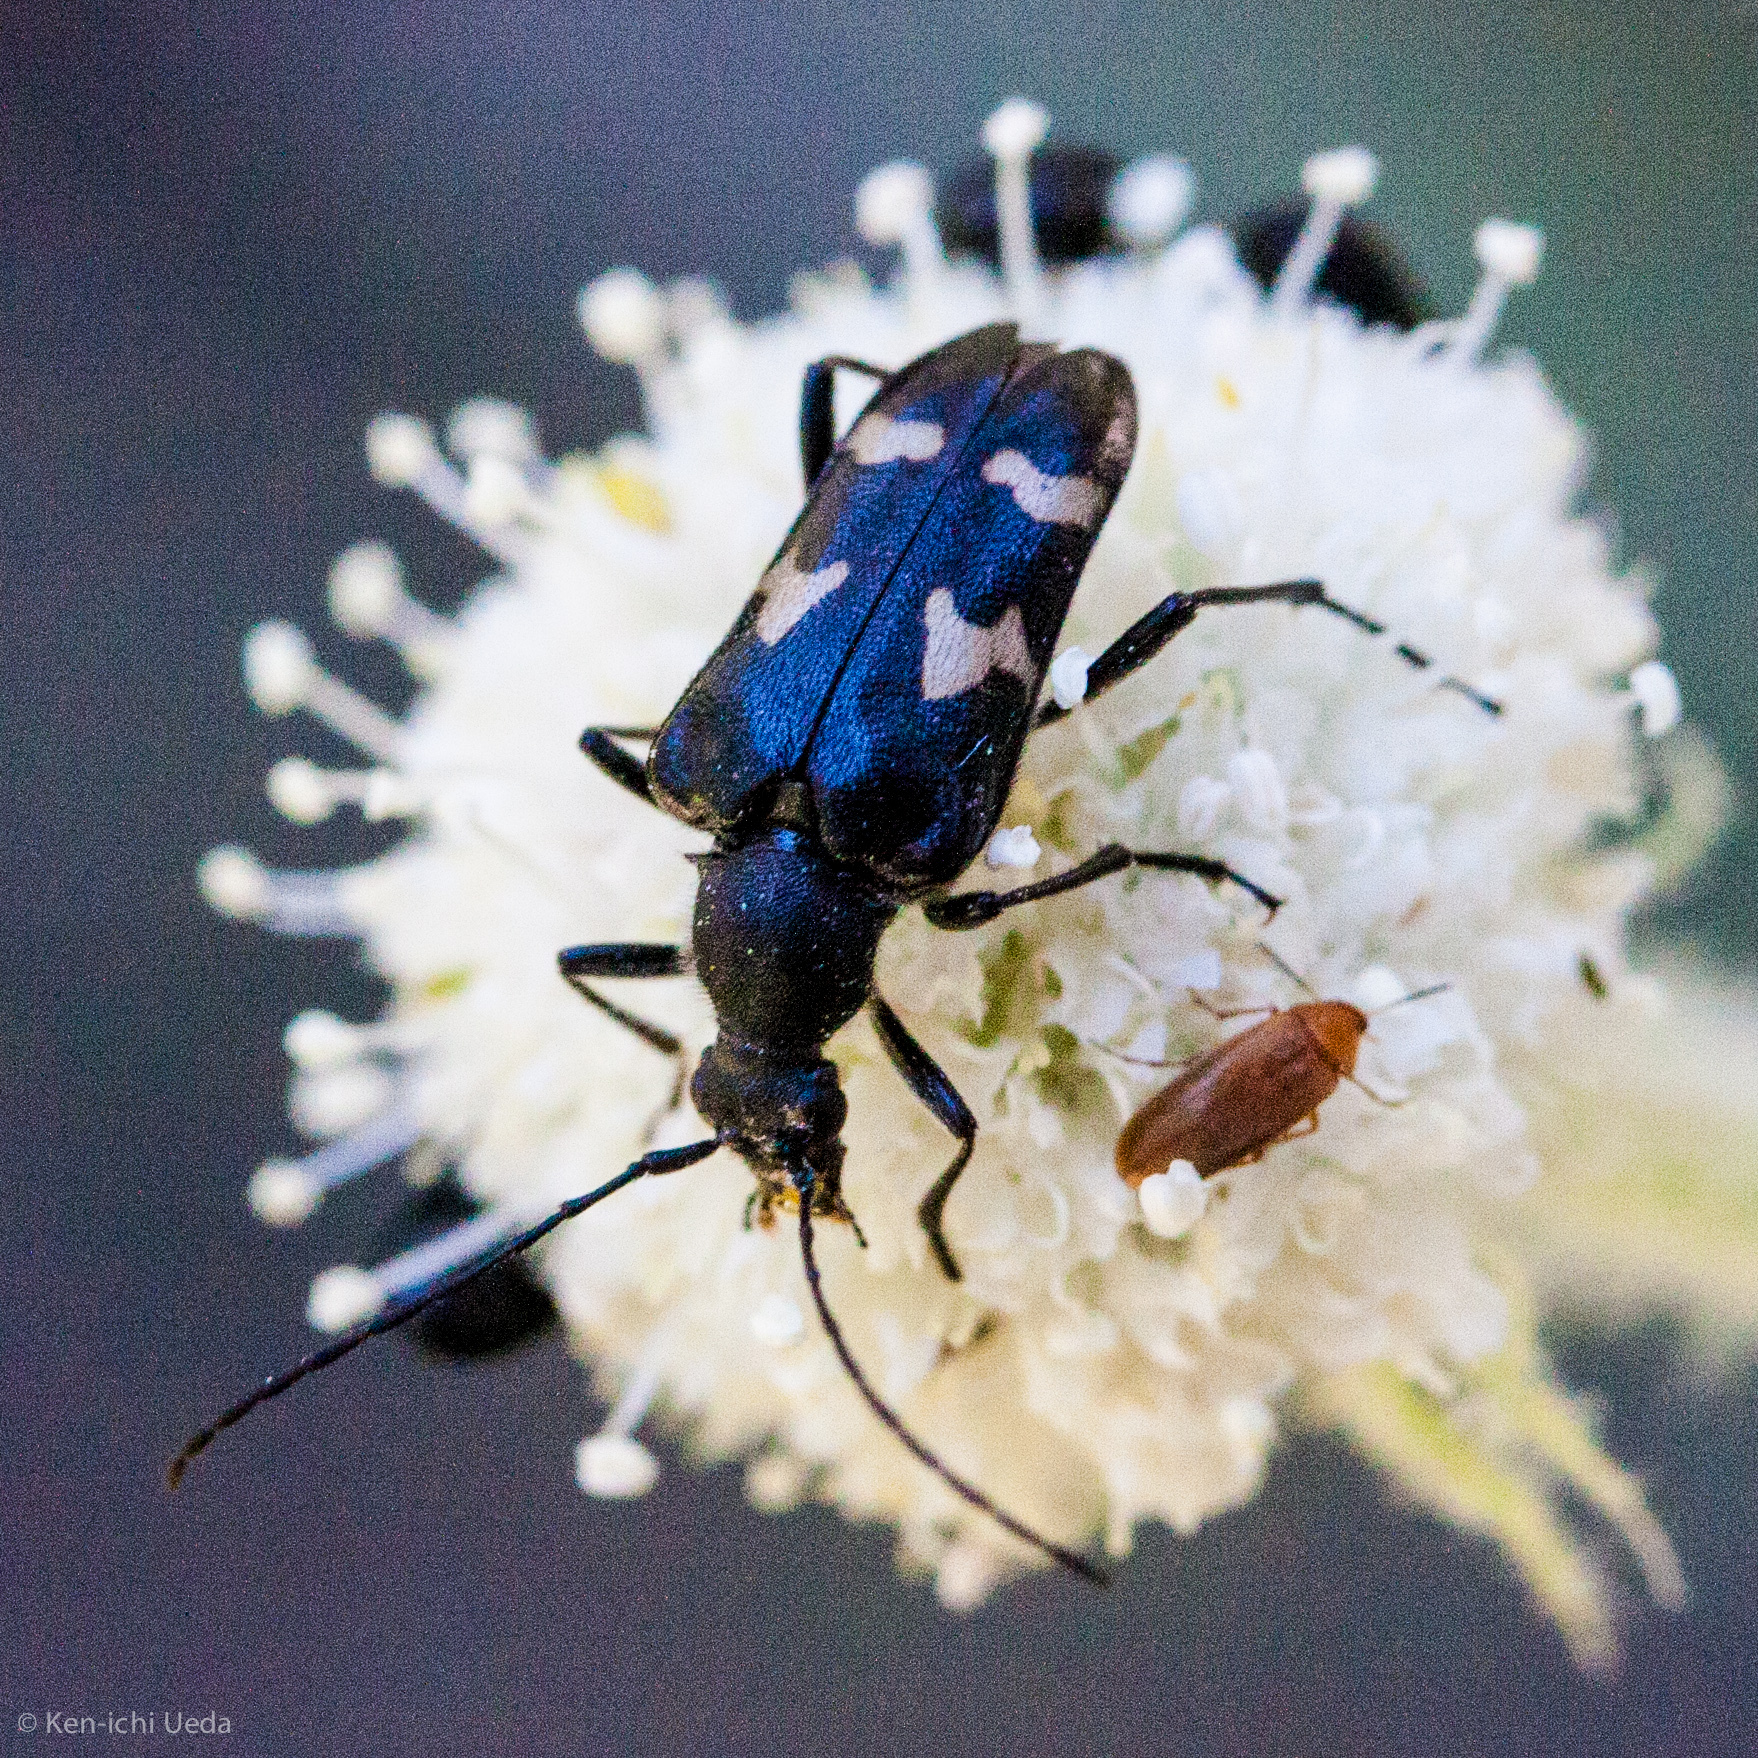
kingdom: Animalia
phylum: Arthropoda
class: Insecta
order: Coleoptera
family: Cerambycidae
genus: Judolia
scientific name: Judolia montivagans
